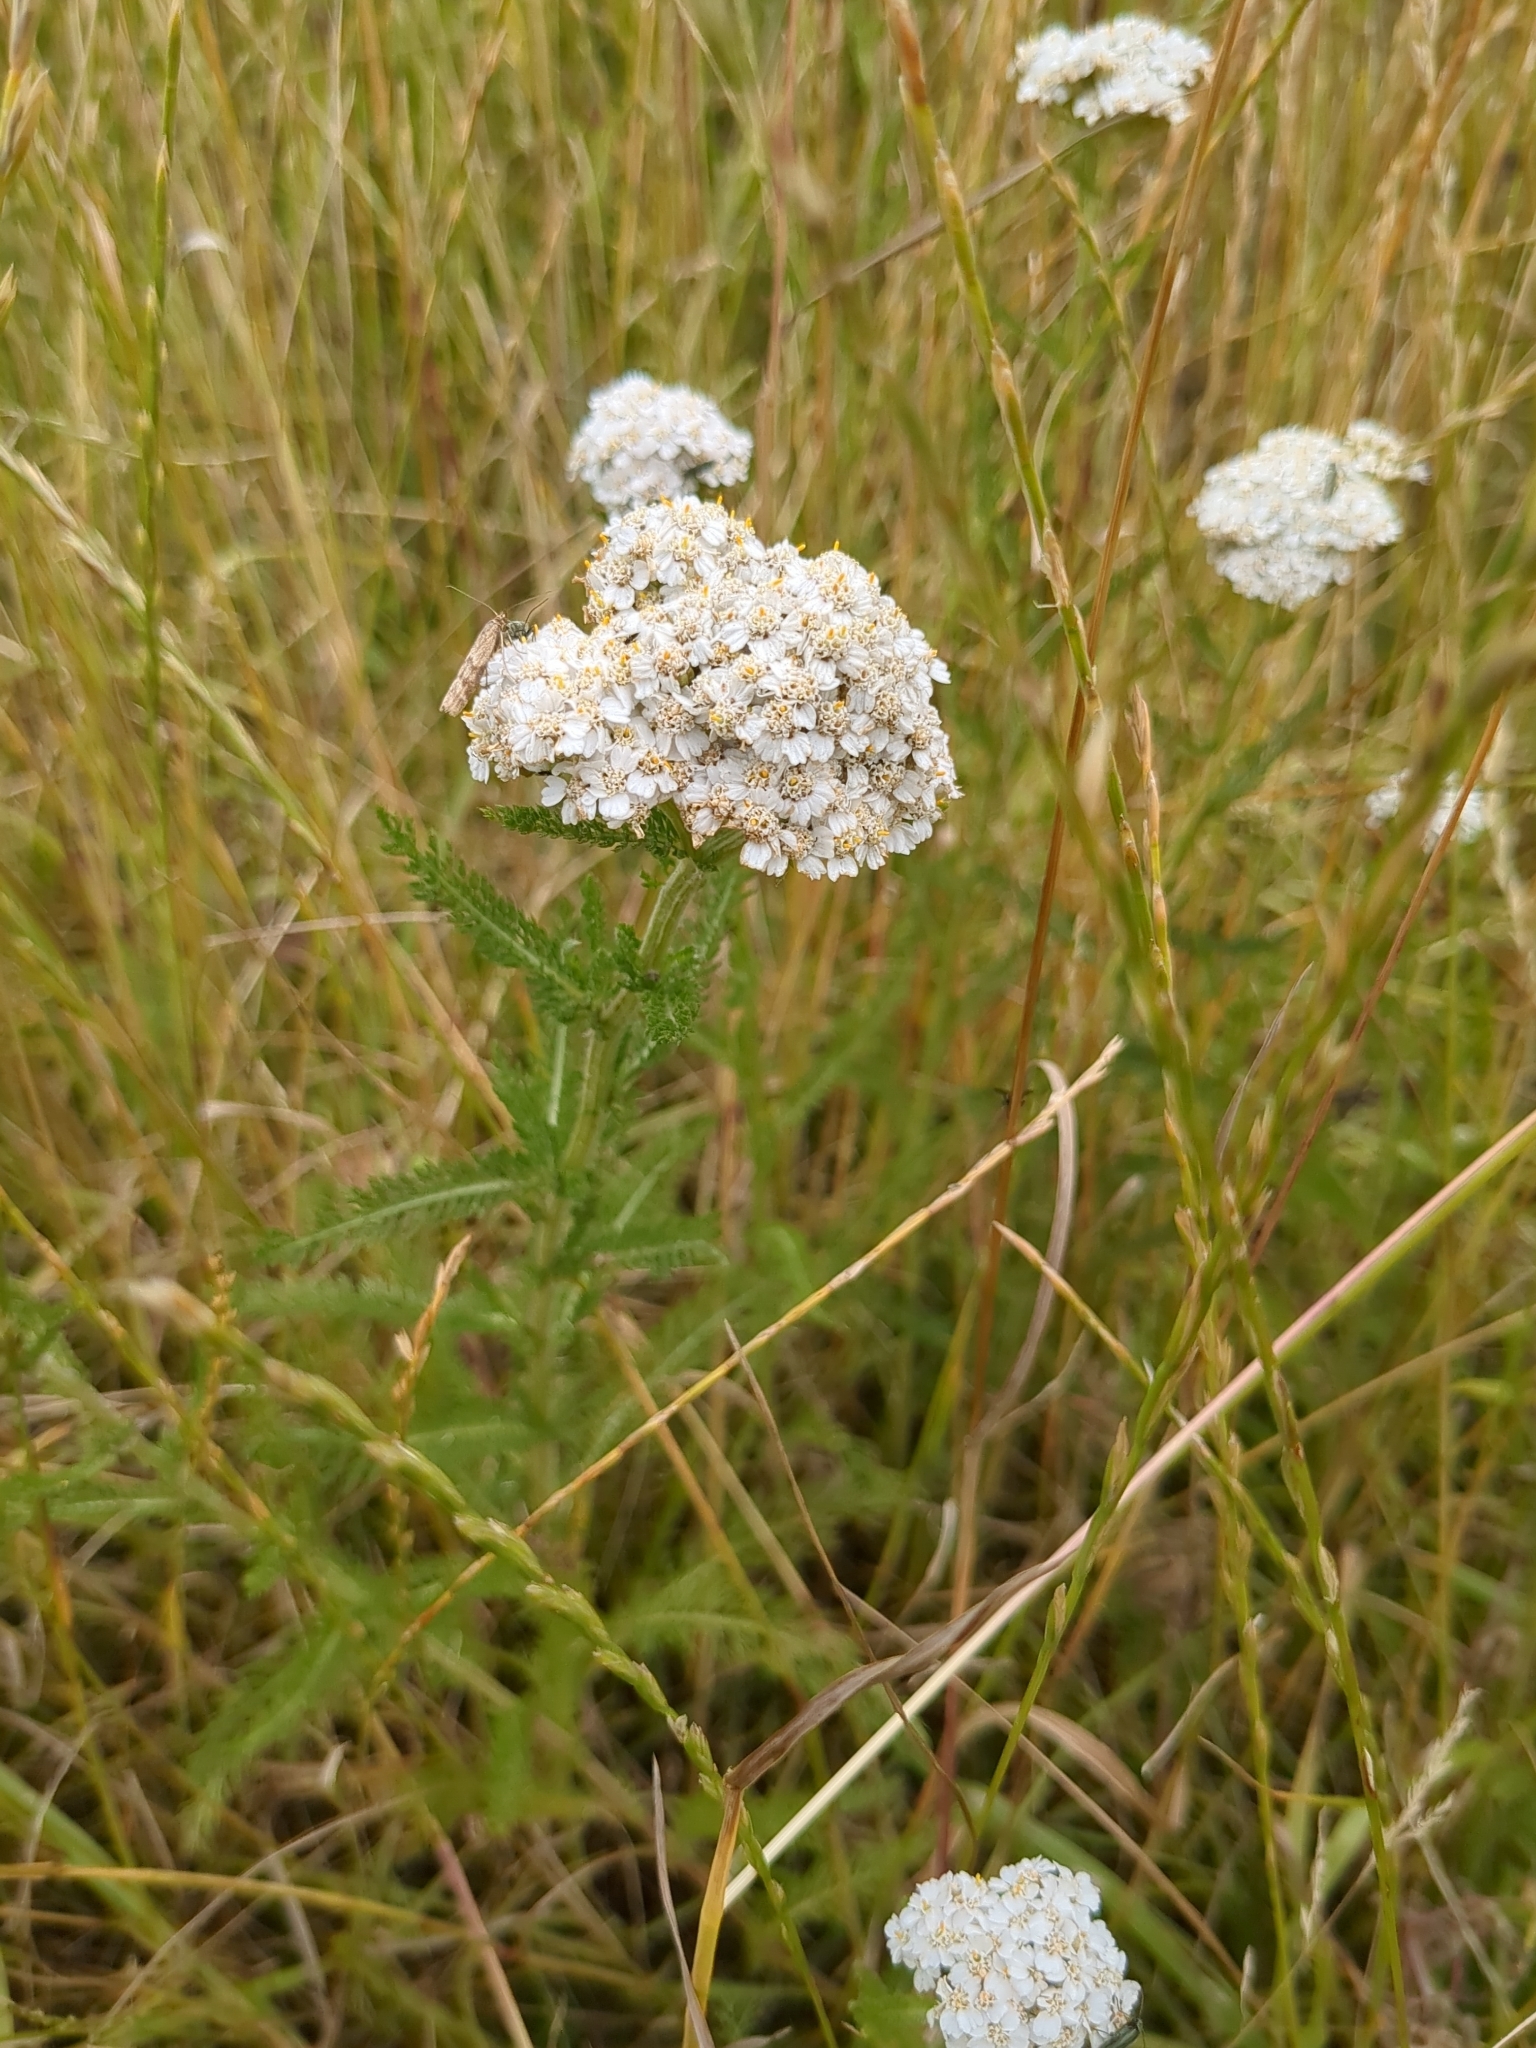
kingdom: Plantae
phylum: Tracheophyta
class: Magnoliopsida
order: Asterales
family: Asteraceae
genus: Achillea
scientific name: Achillea millefolium
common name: Yarrow
